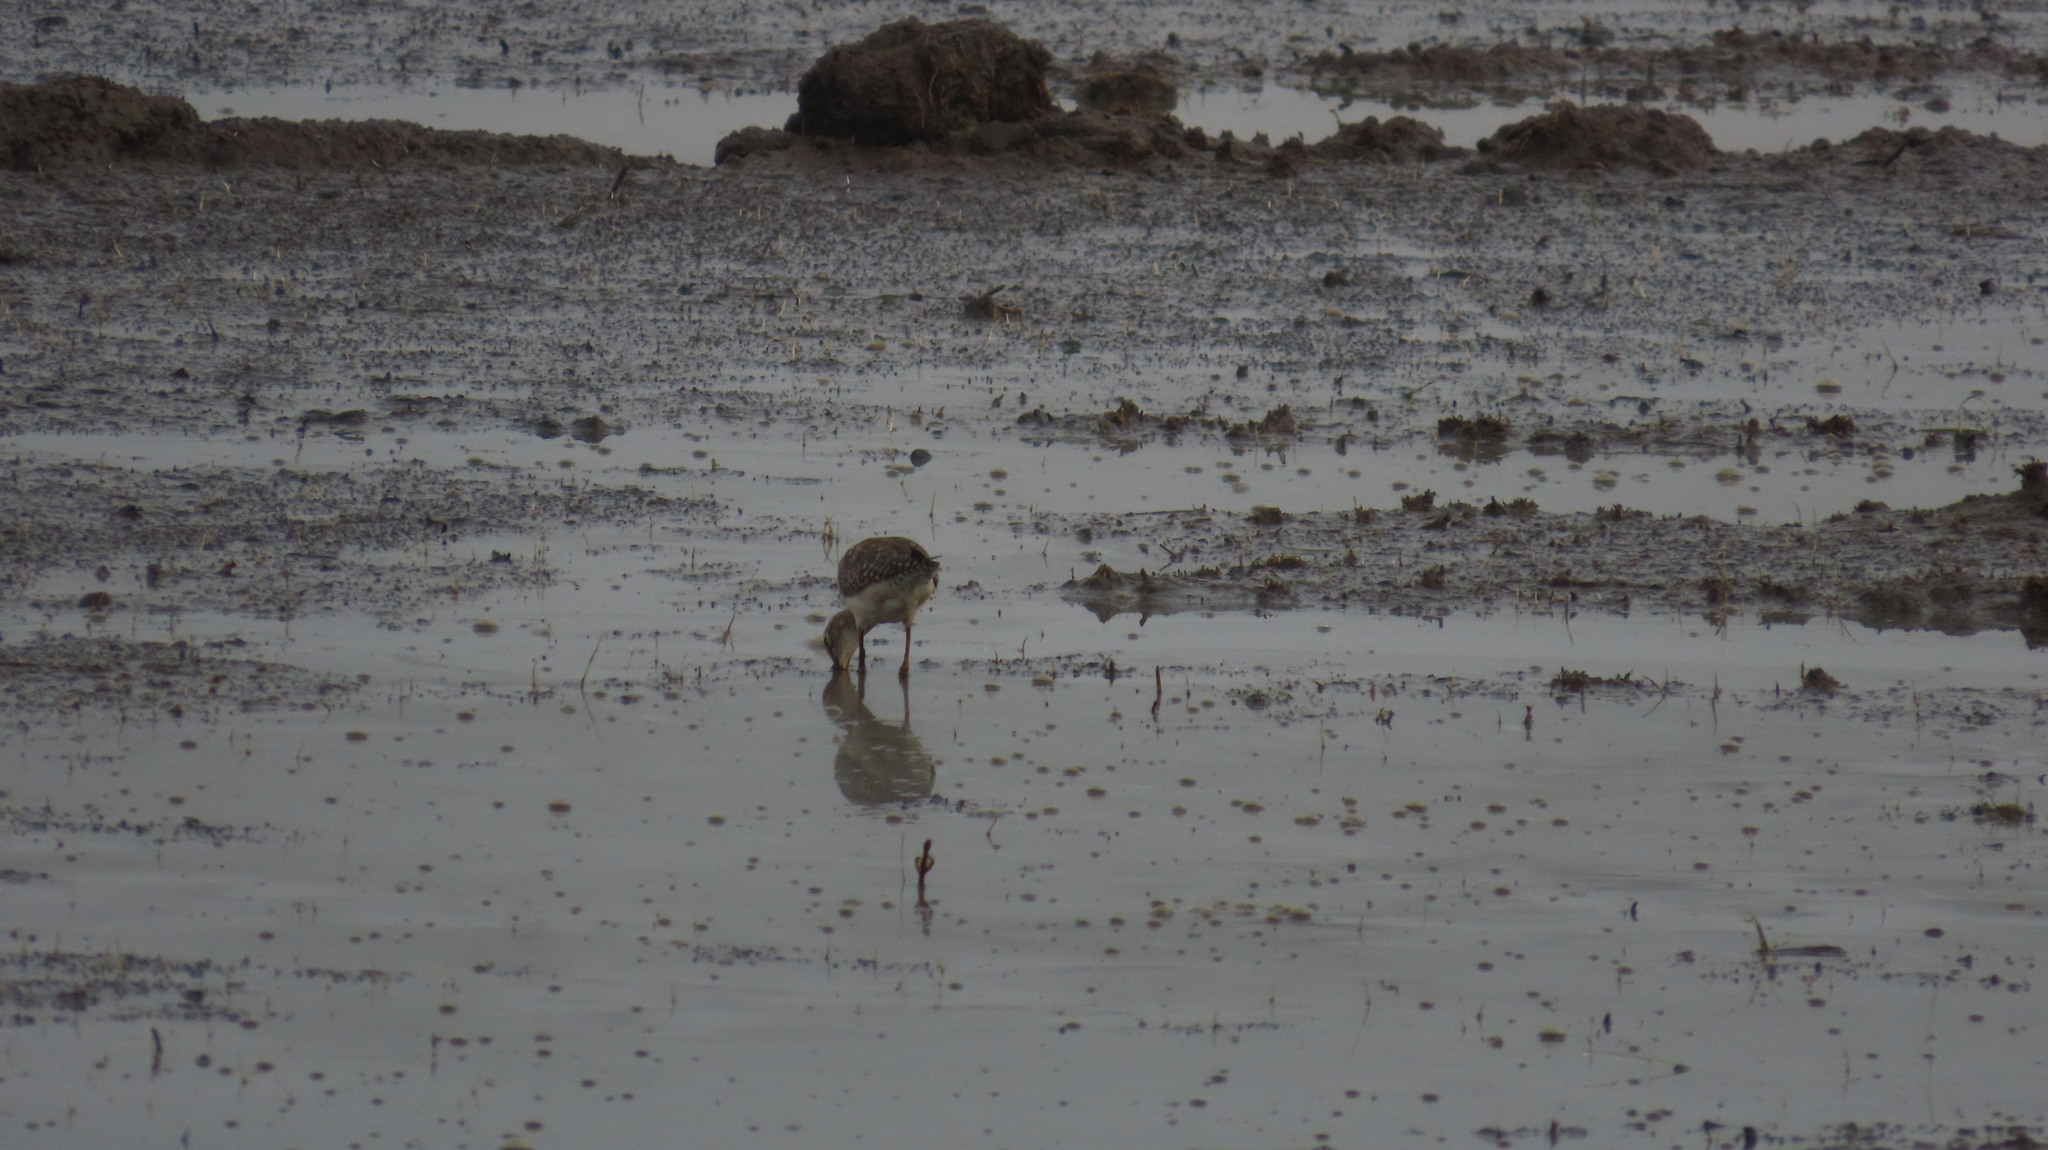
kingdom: Animalia
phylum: Chordata
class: Aves
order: Charadriiformes
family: Scolopacidae
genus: Tringa
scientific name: Tringa glareola
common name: Wood sandpiper
